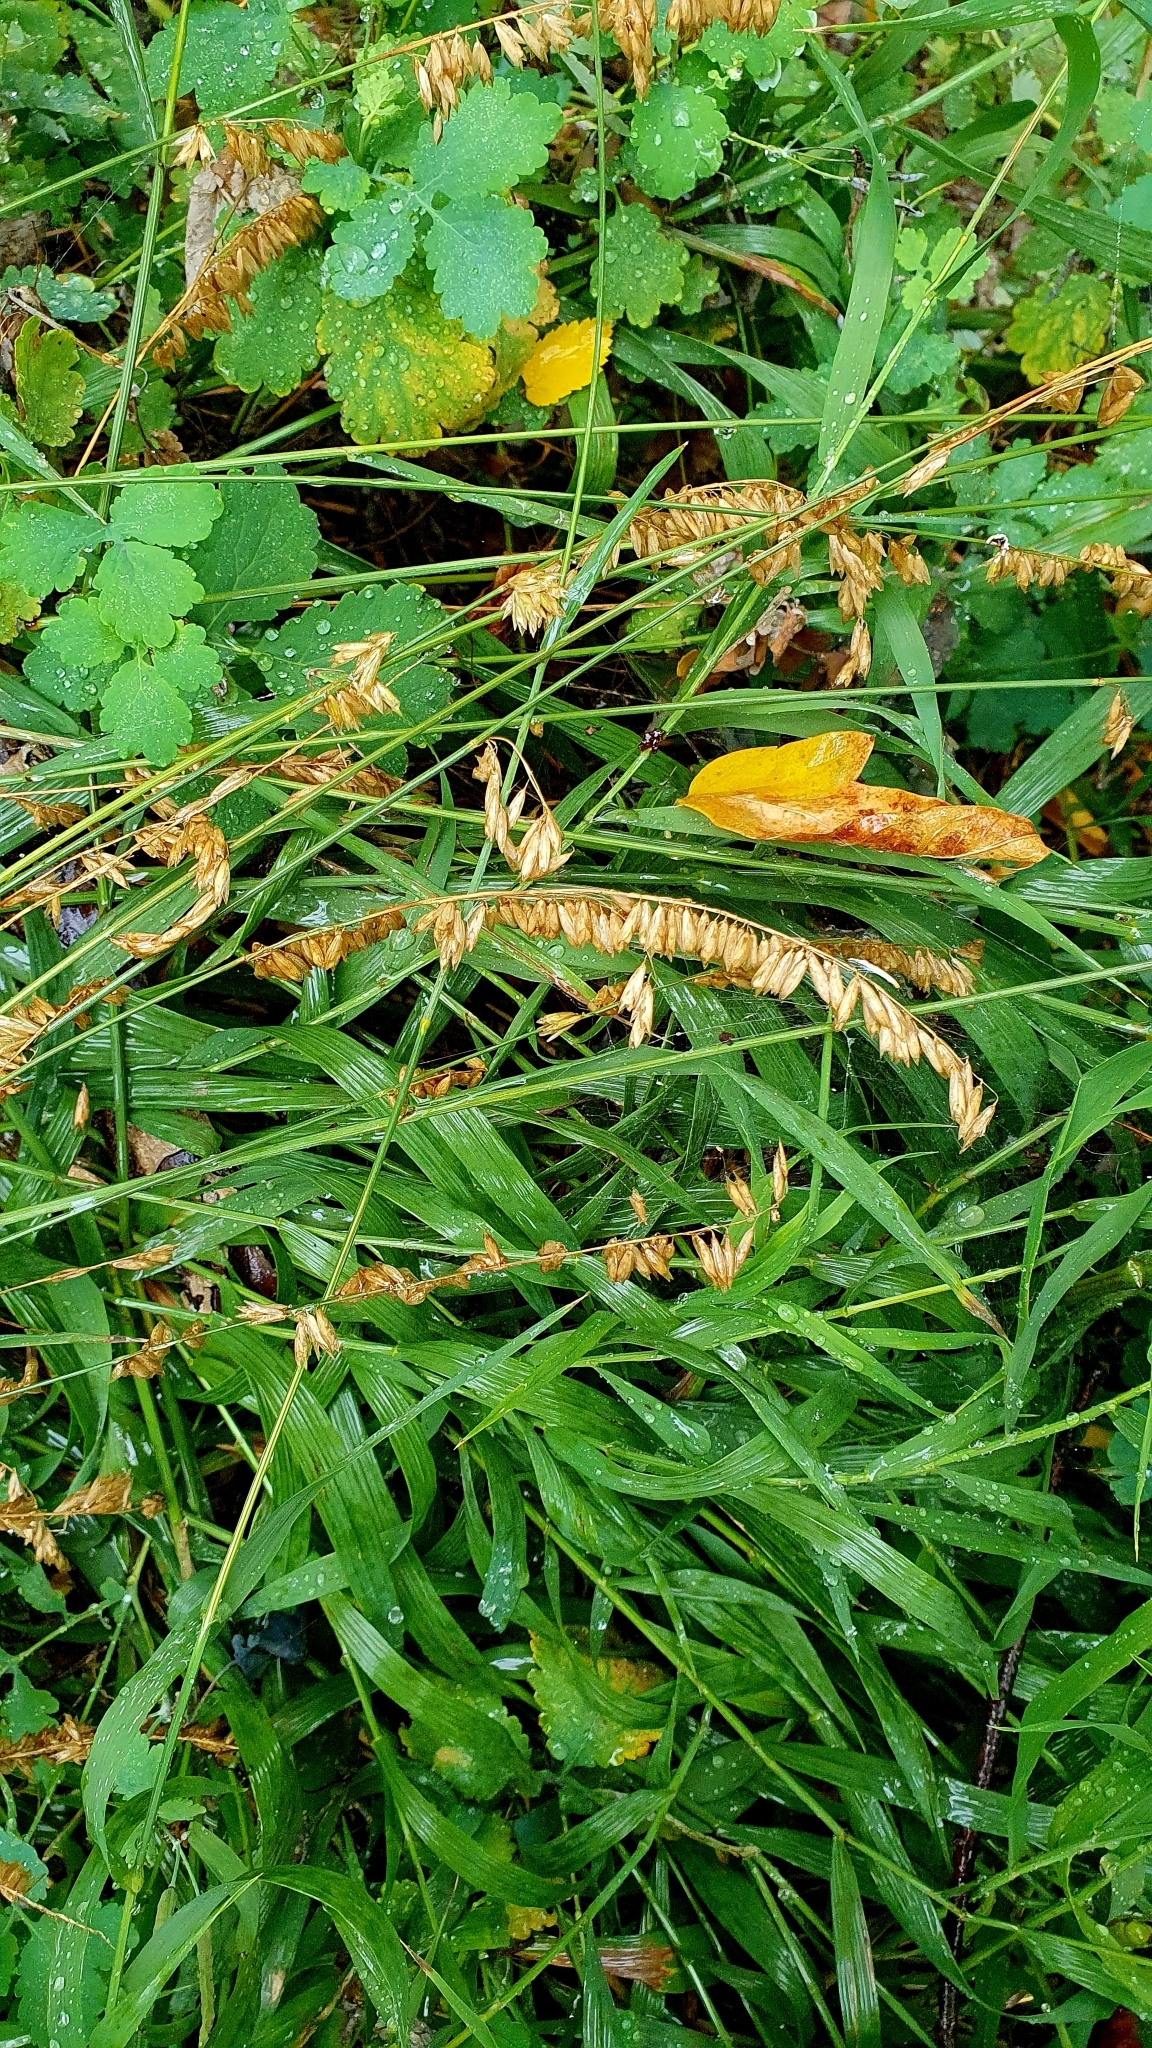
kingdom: Plantae
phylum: Tracheophyta
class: Liliopsida
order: Poales
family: Poaceae
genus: Melica
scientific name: Melica altissima
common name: Siberian melicgrass
